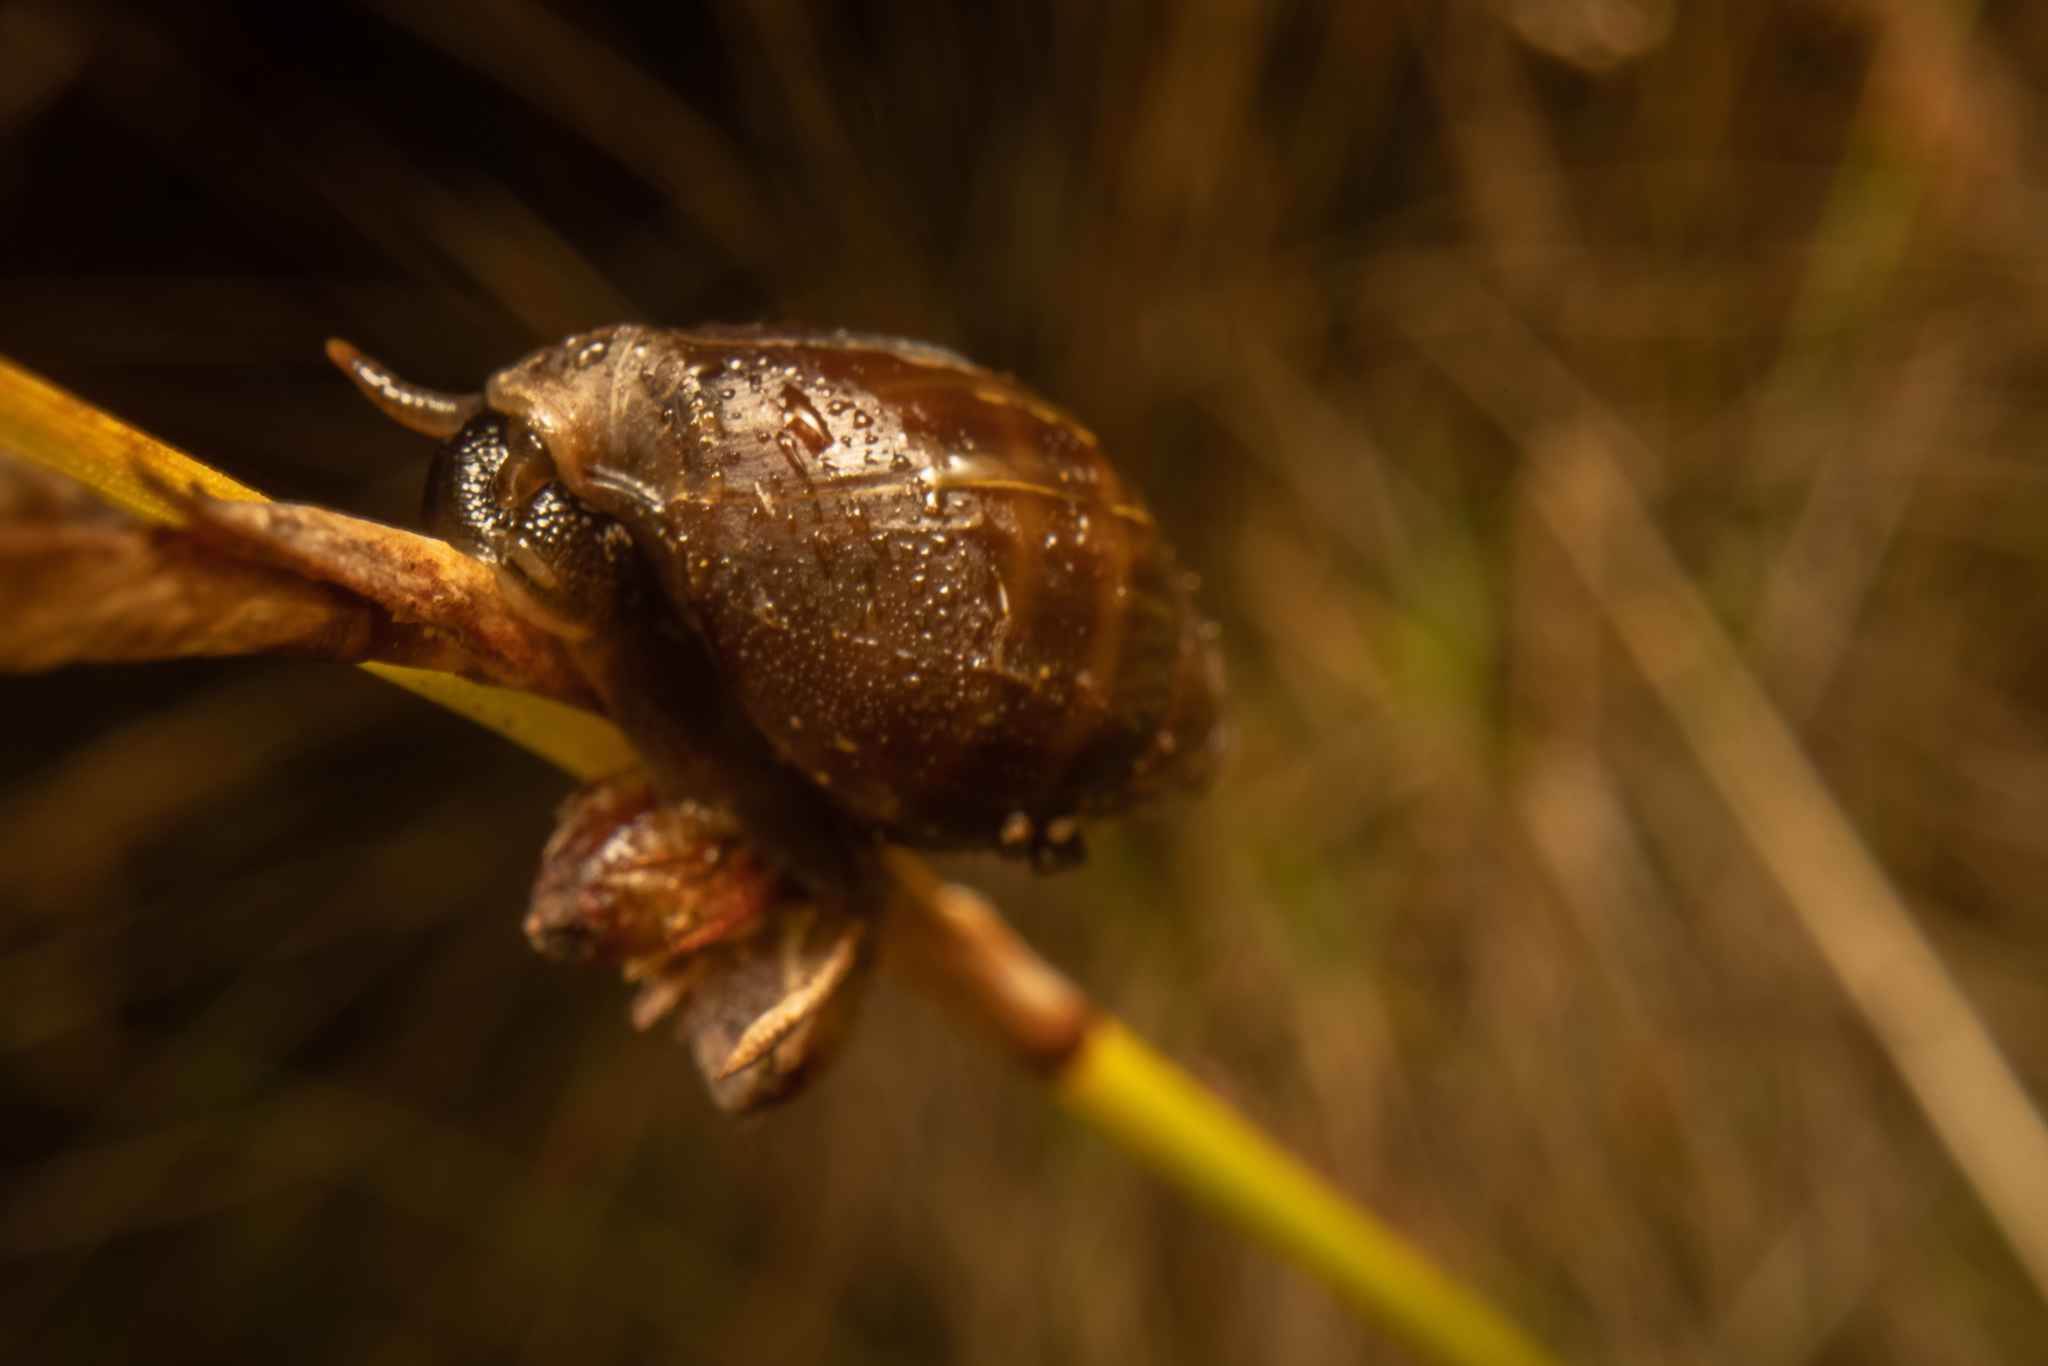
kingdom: Animalia
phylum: Mollusca
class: Gastropoda
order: Ellobiida
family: Ellobiidae
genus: Pleuroloba
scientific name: Pleuroloba costellaris
